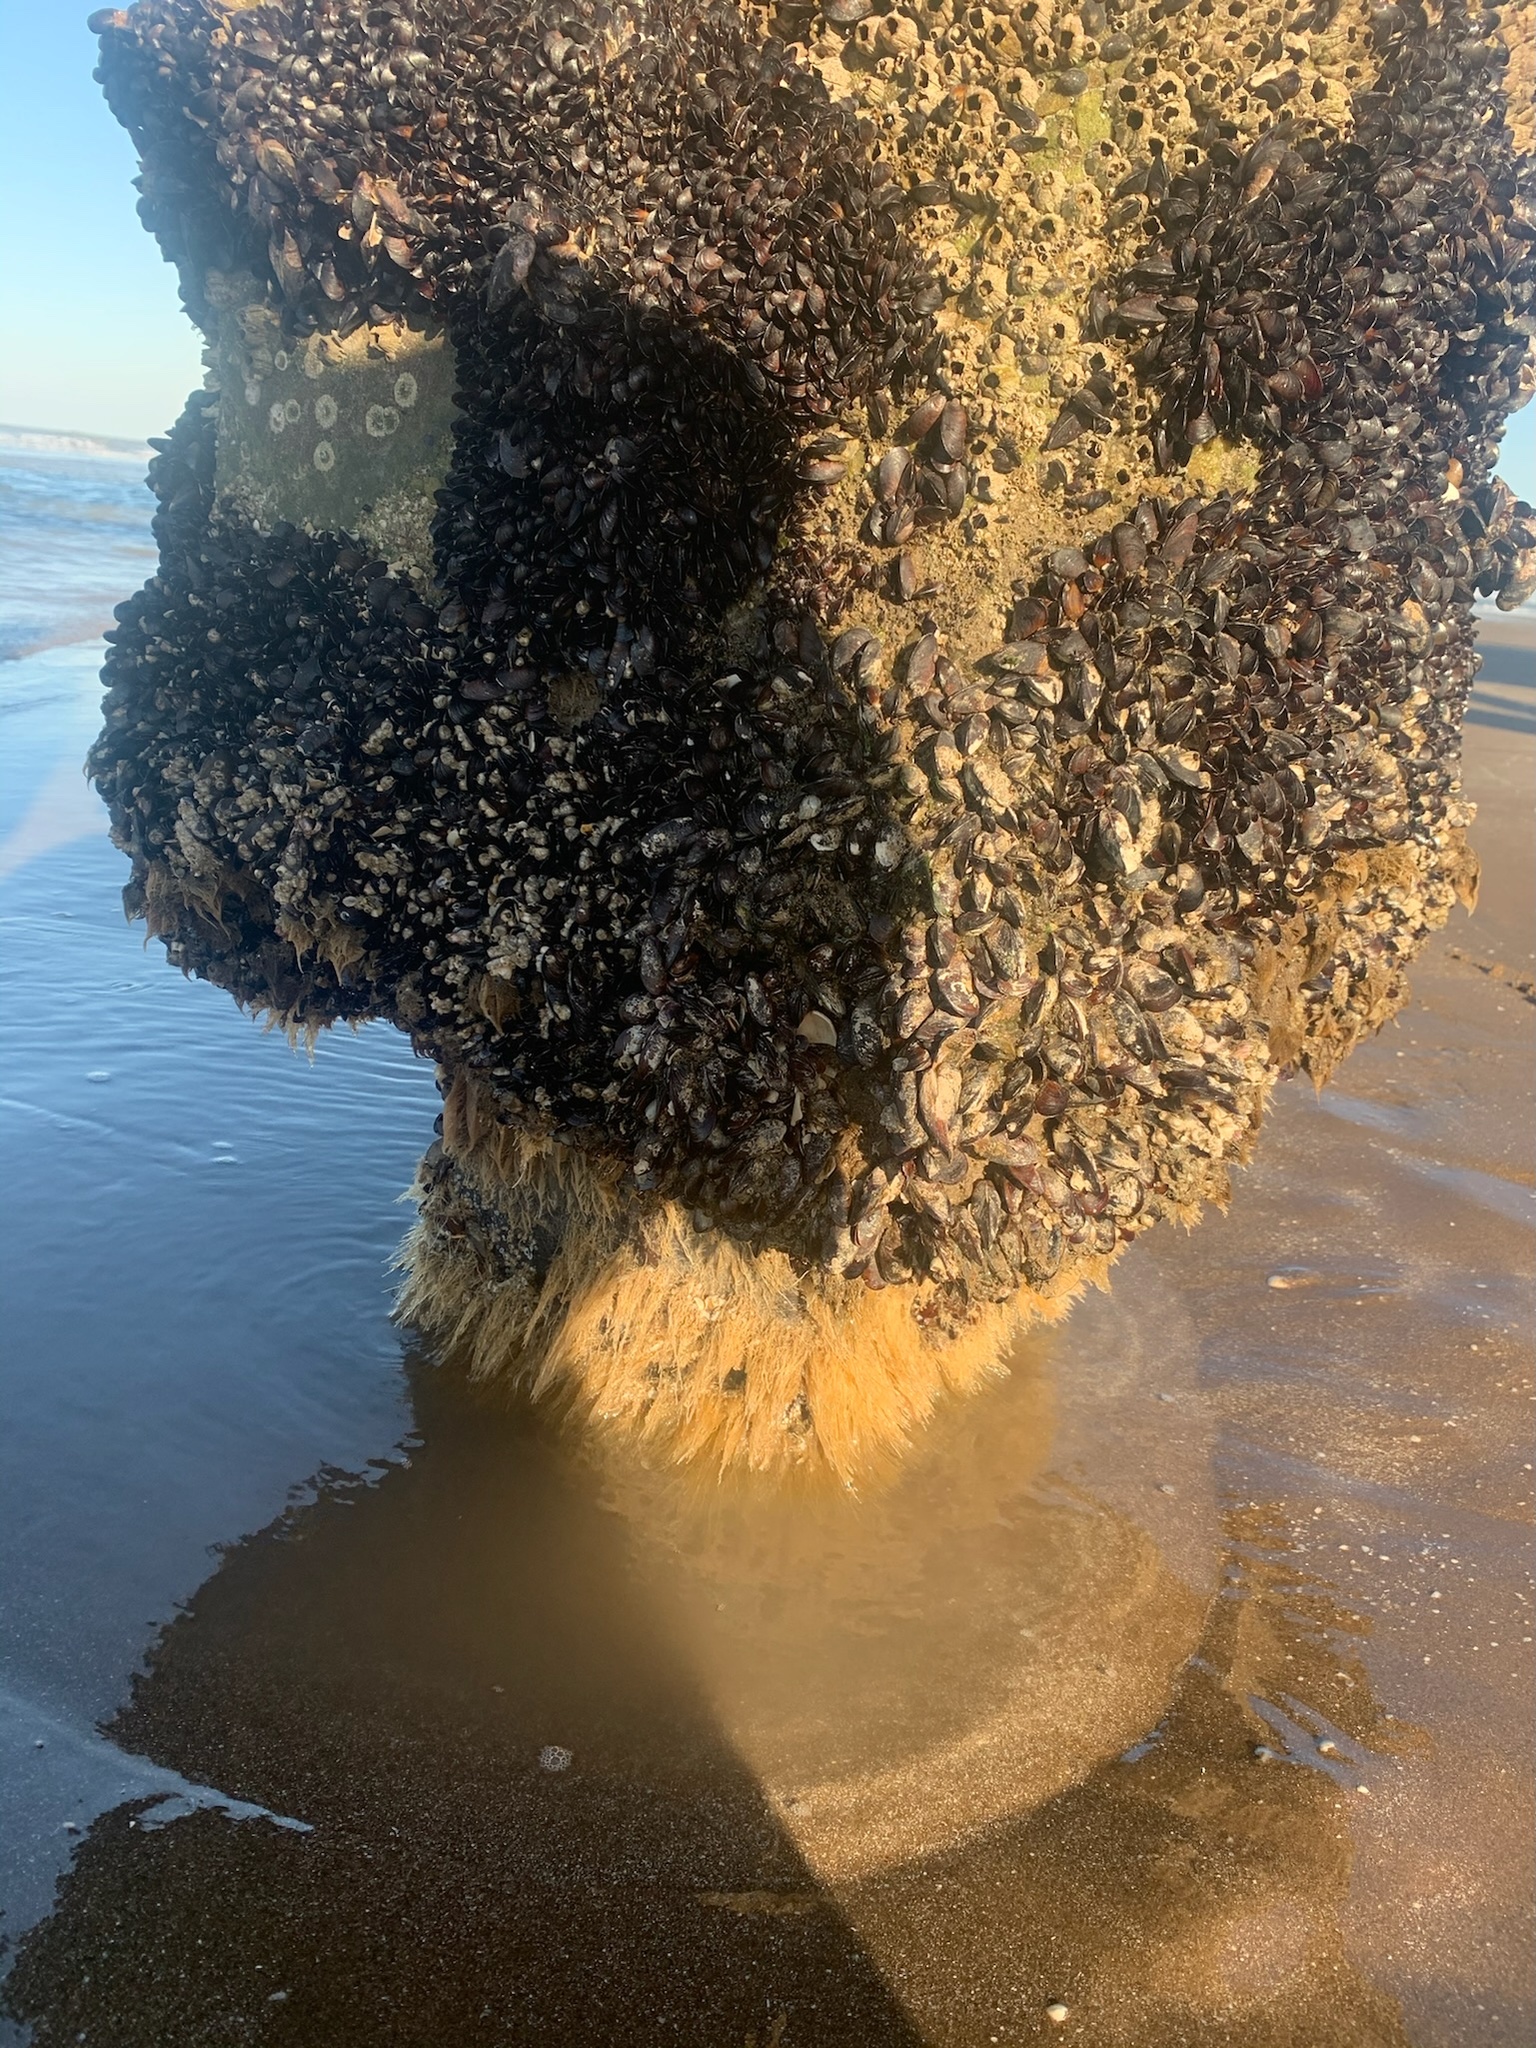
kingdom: Animalia
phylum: Mollusca
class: Bivalvia
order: Mytilida
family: Mytilidae
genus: Brachidontes
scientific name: Brachidontes rodriguezii
